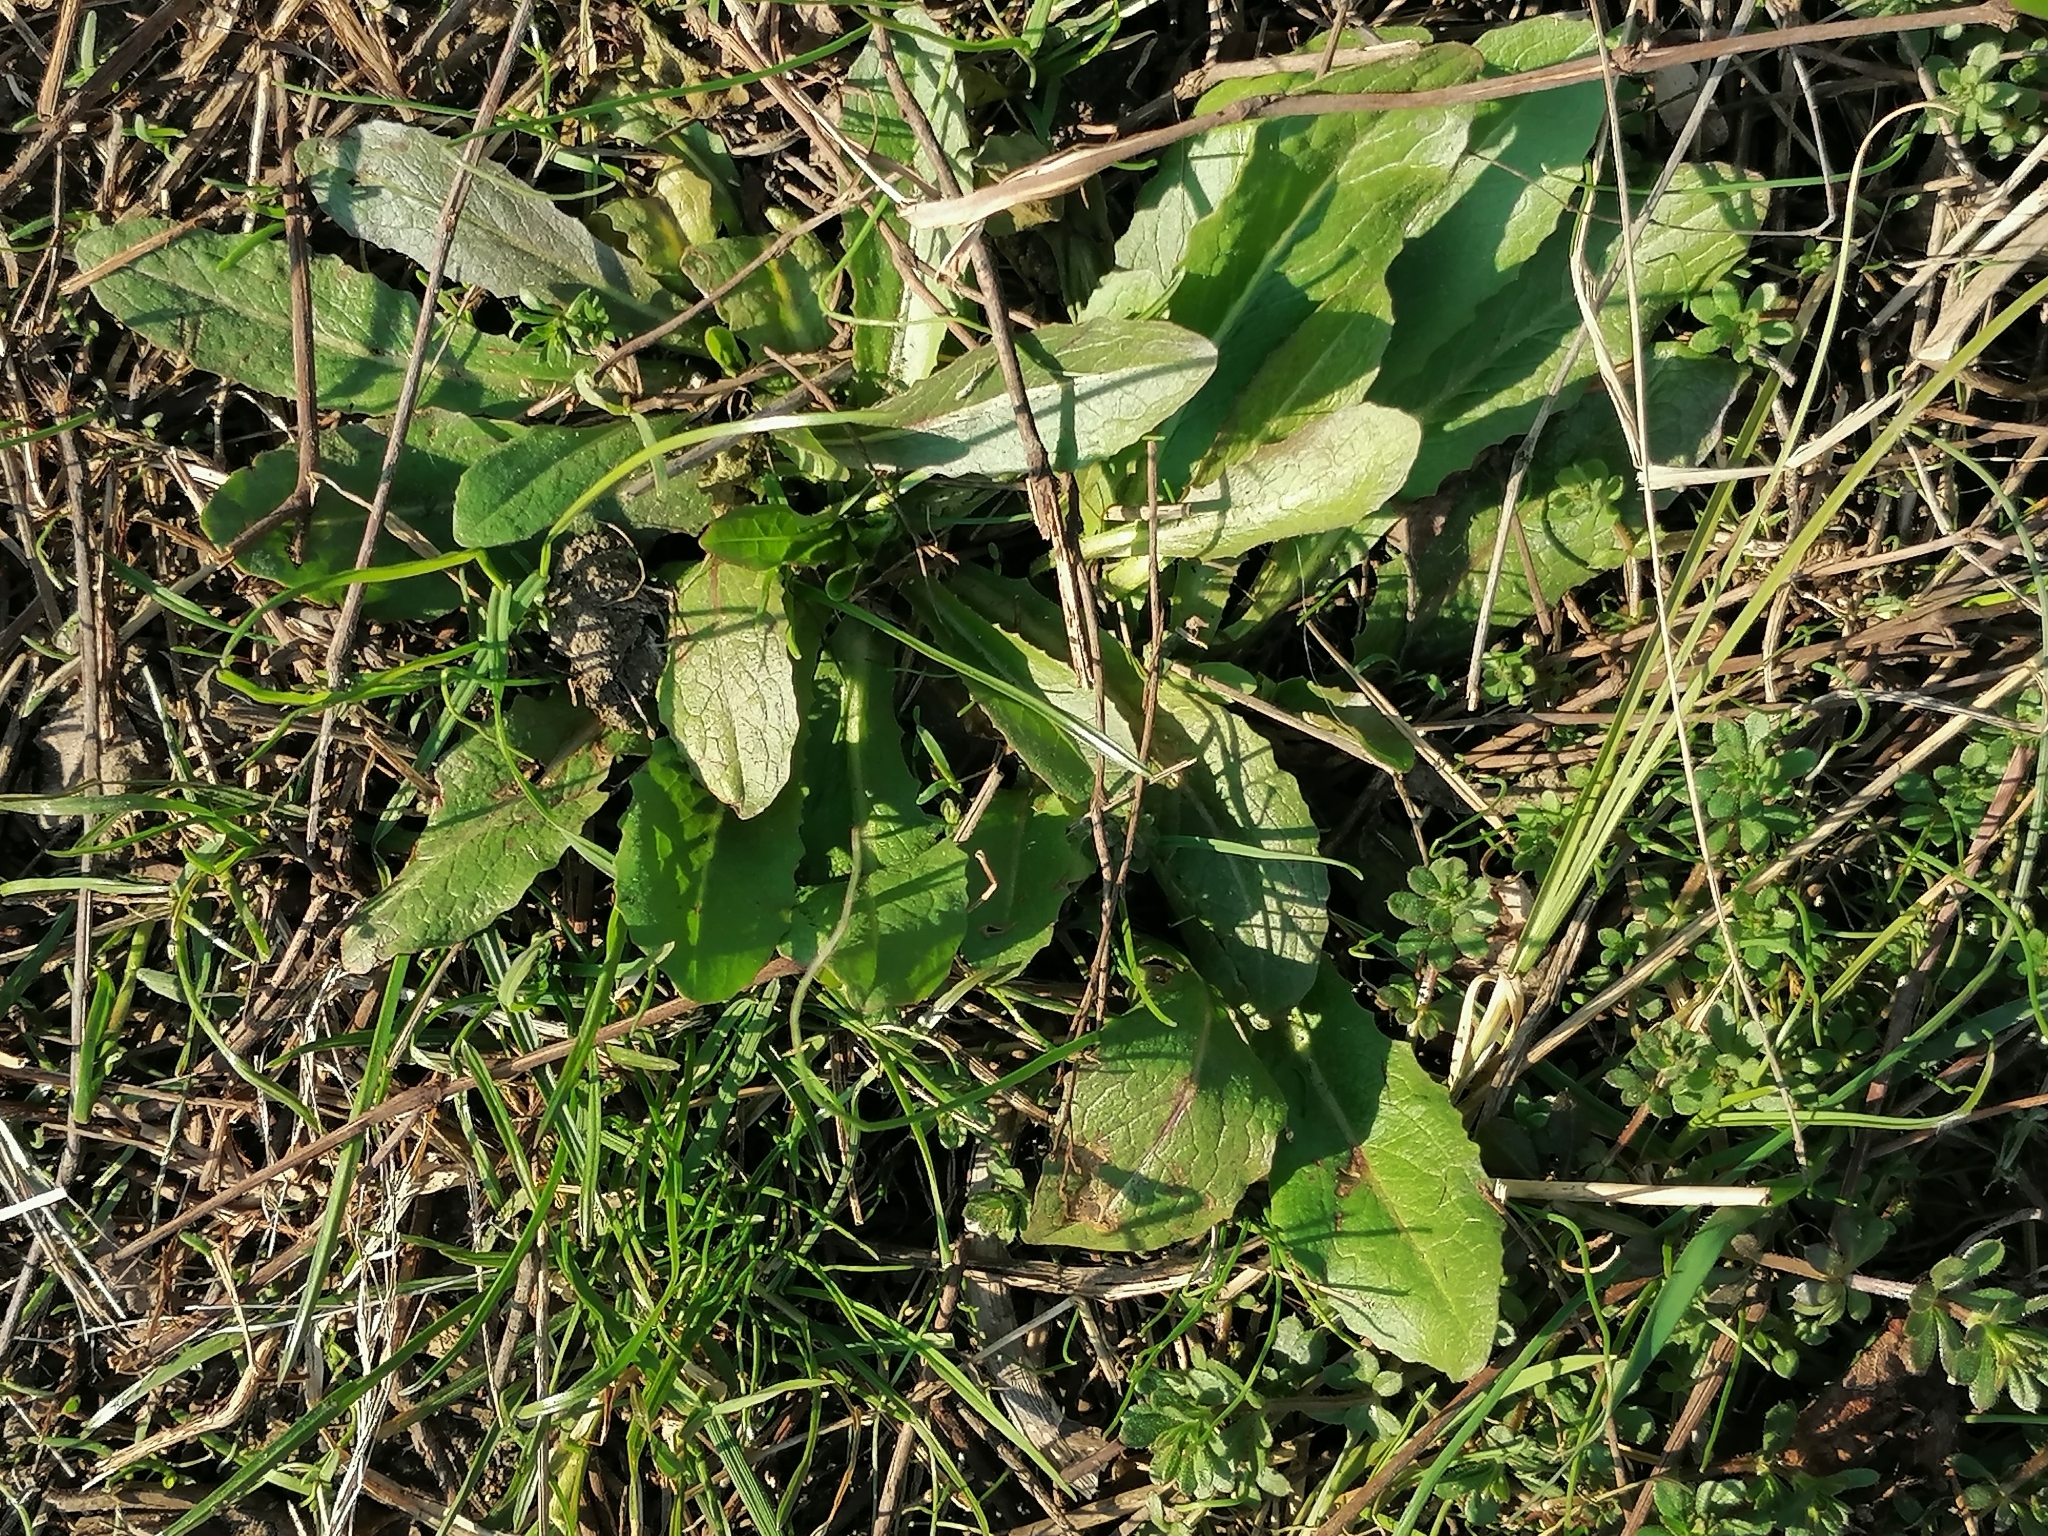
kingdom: Plantae
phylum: Tracheophyta
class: Magnoliopsida
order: Asterales
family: Asteraceae
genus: Hypochaeris
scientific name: Hypochaeris radicata
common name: Flatweed
